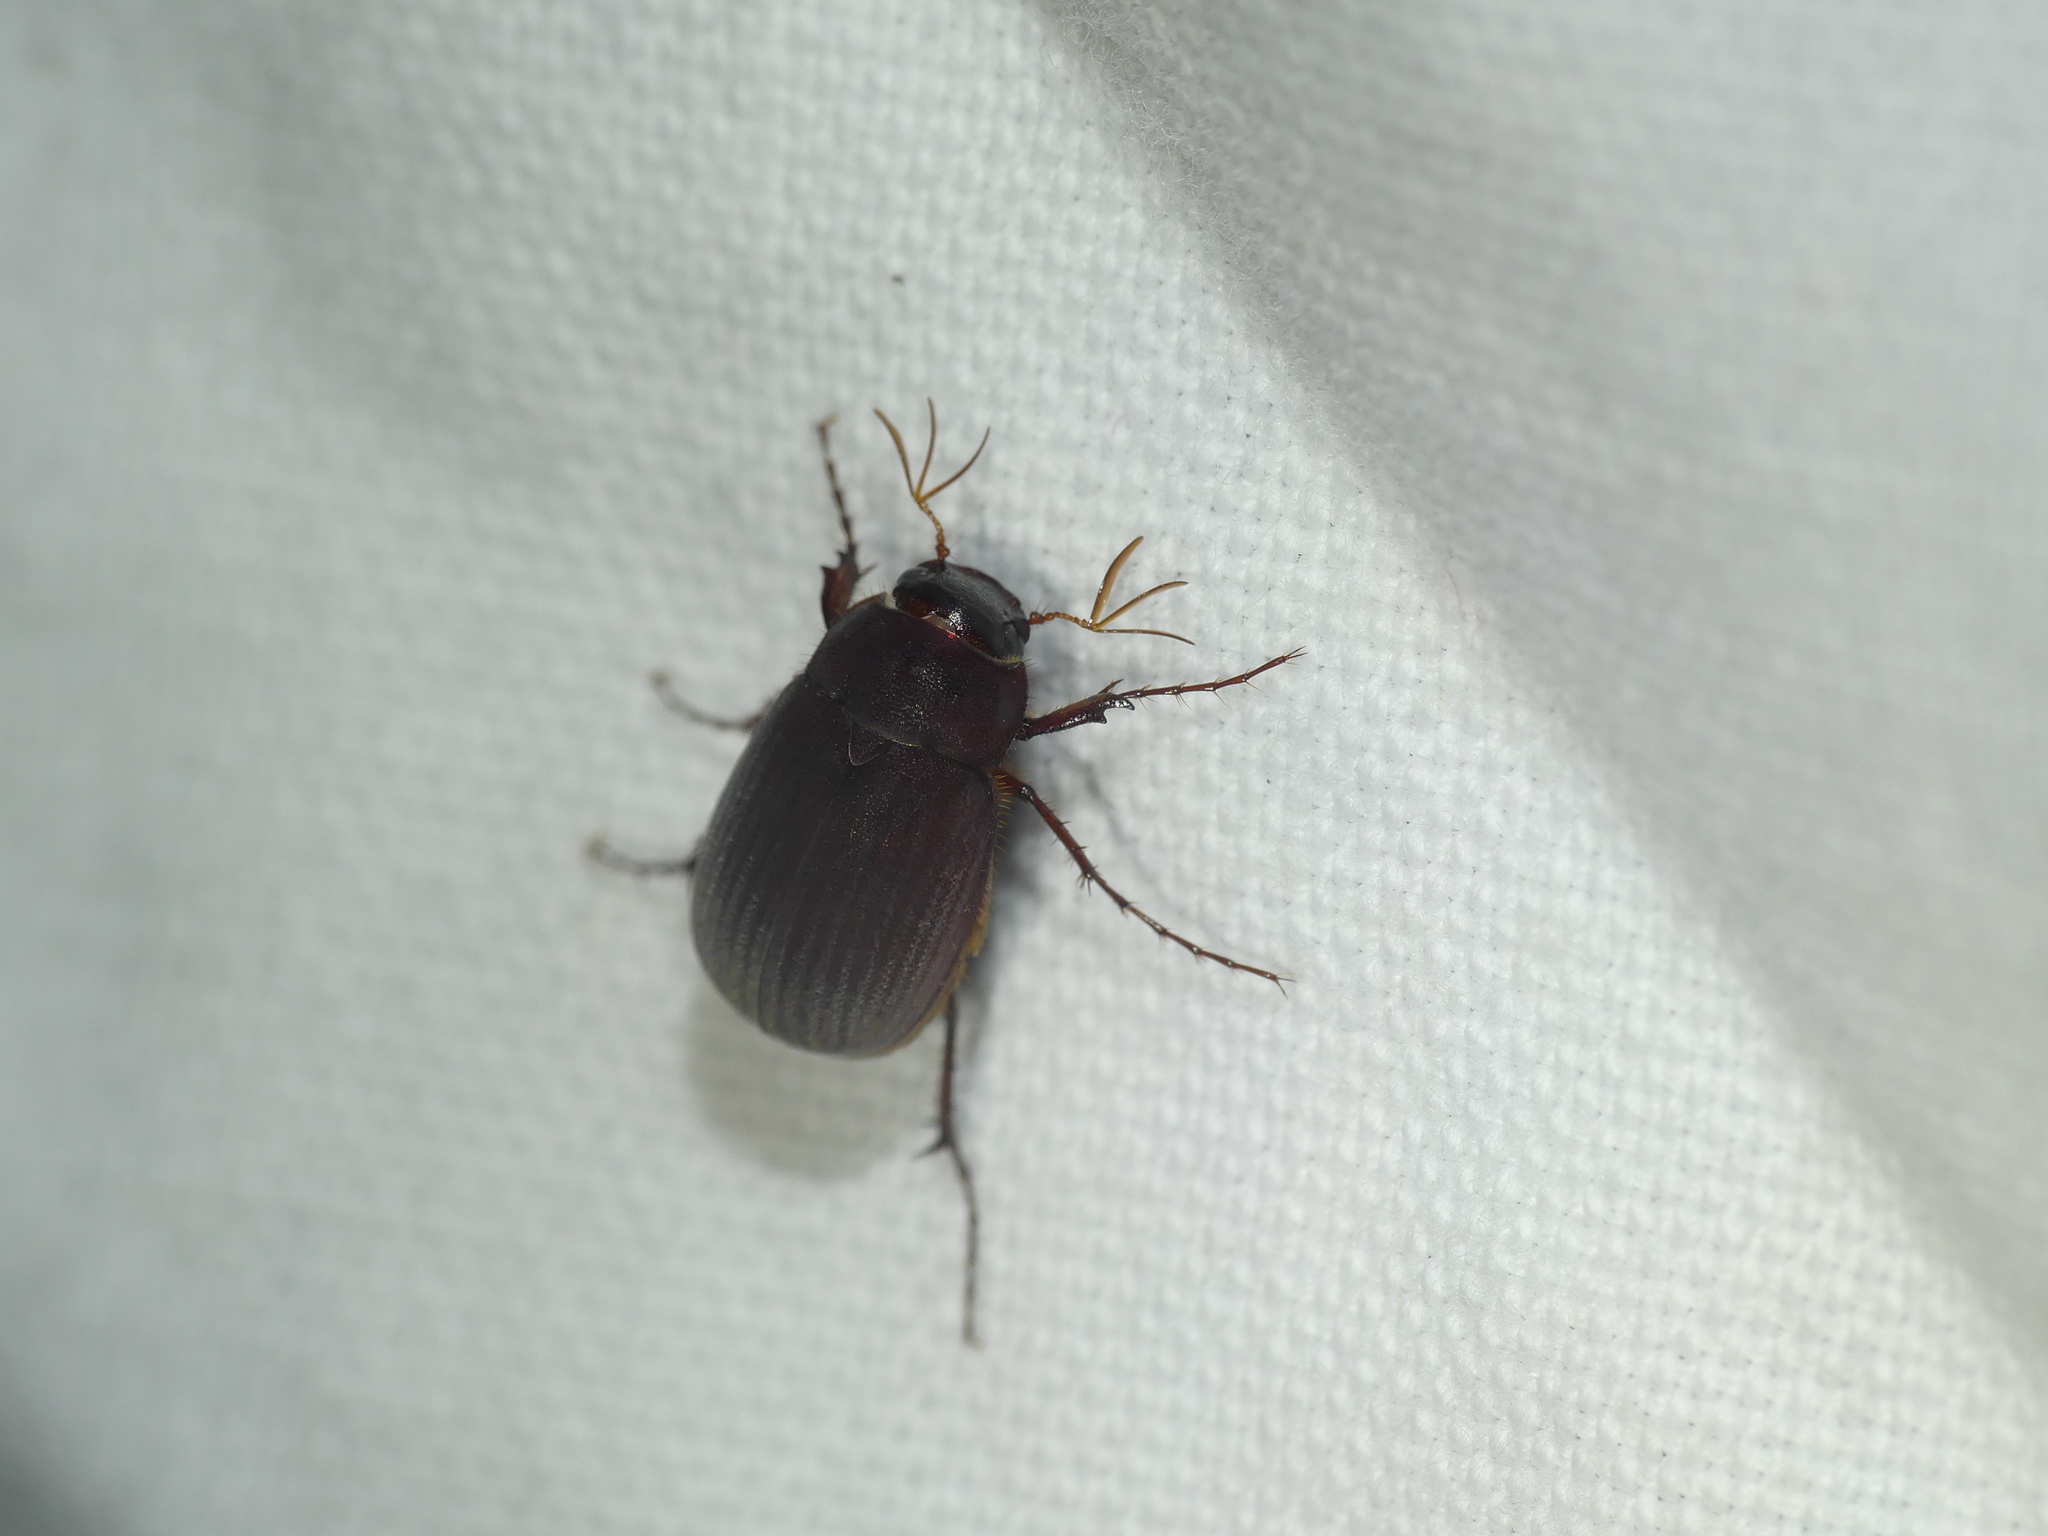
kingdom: Animalia
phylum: Arthropoda
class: Insecta
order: Coleoptera
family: Scarabaeidae
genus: Maladera
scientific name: Maladera holosericea
